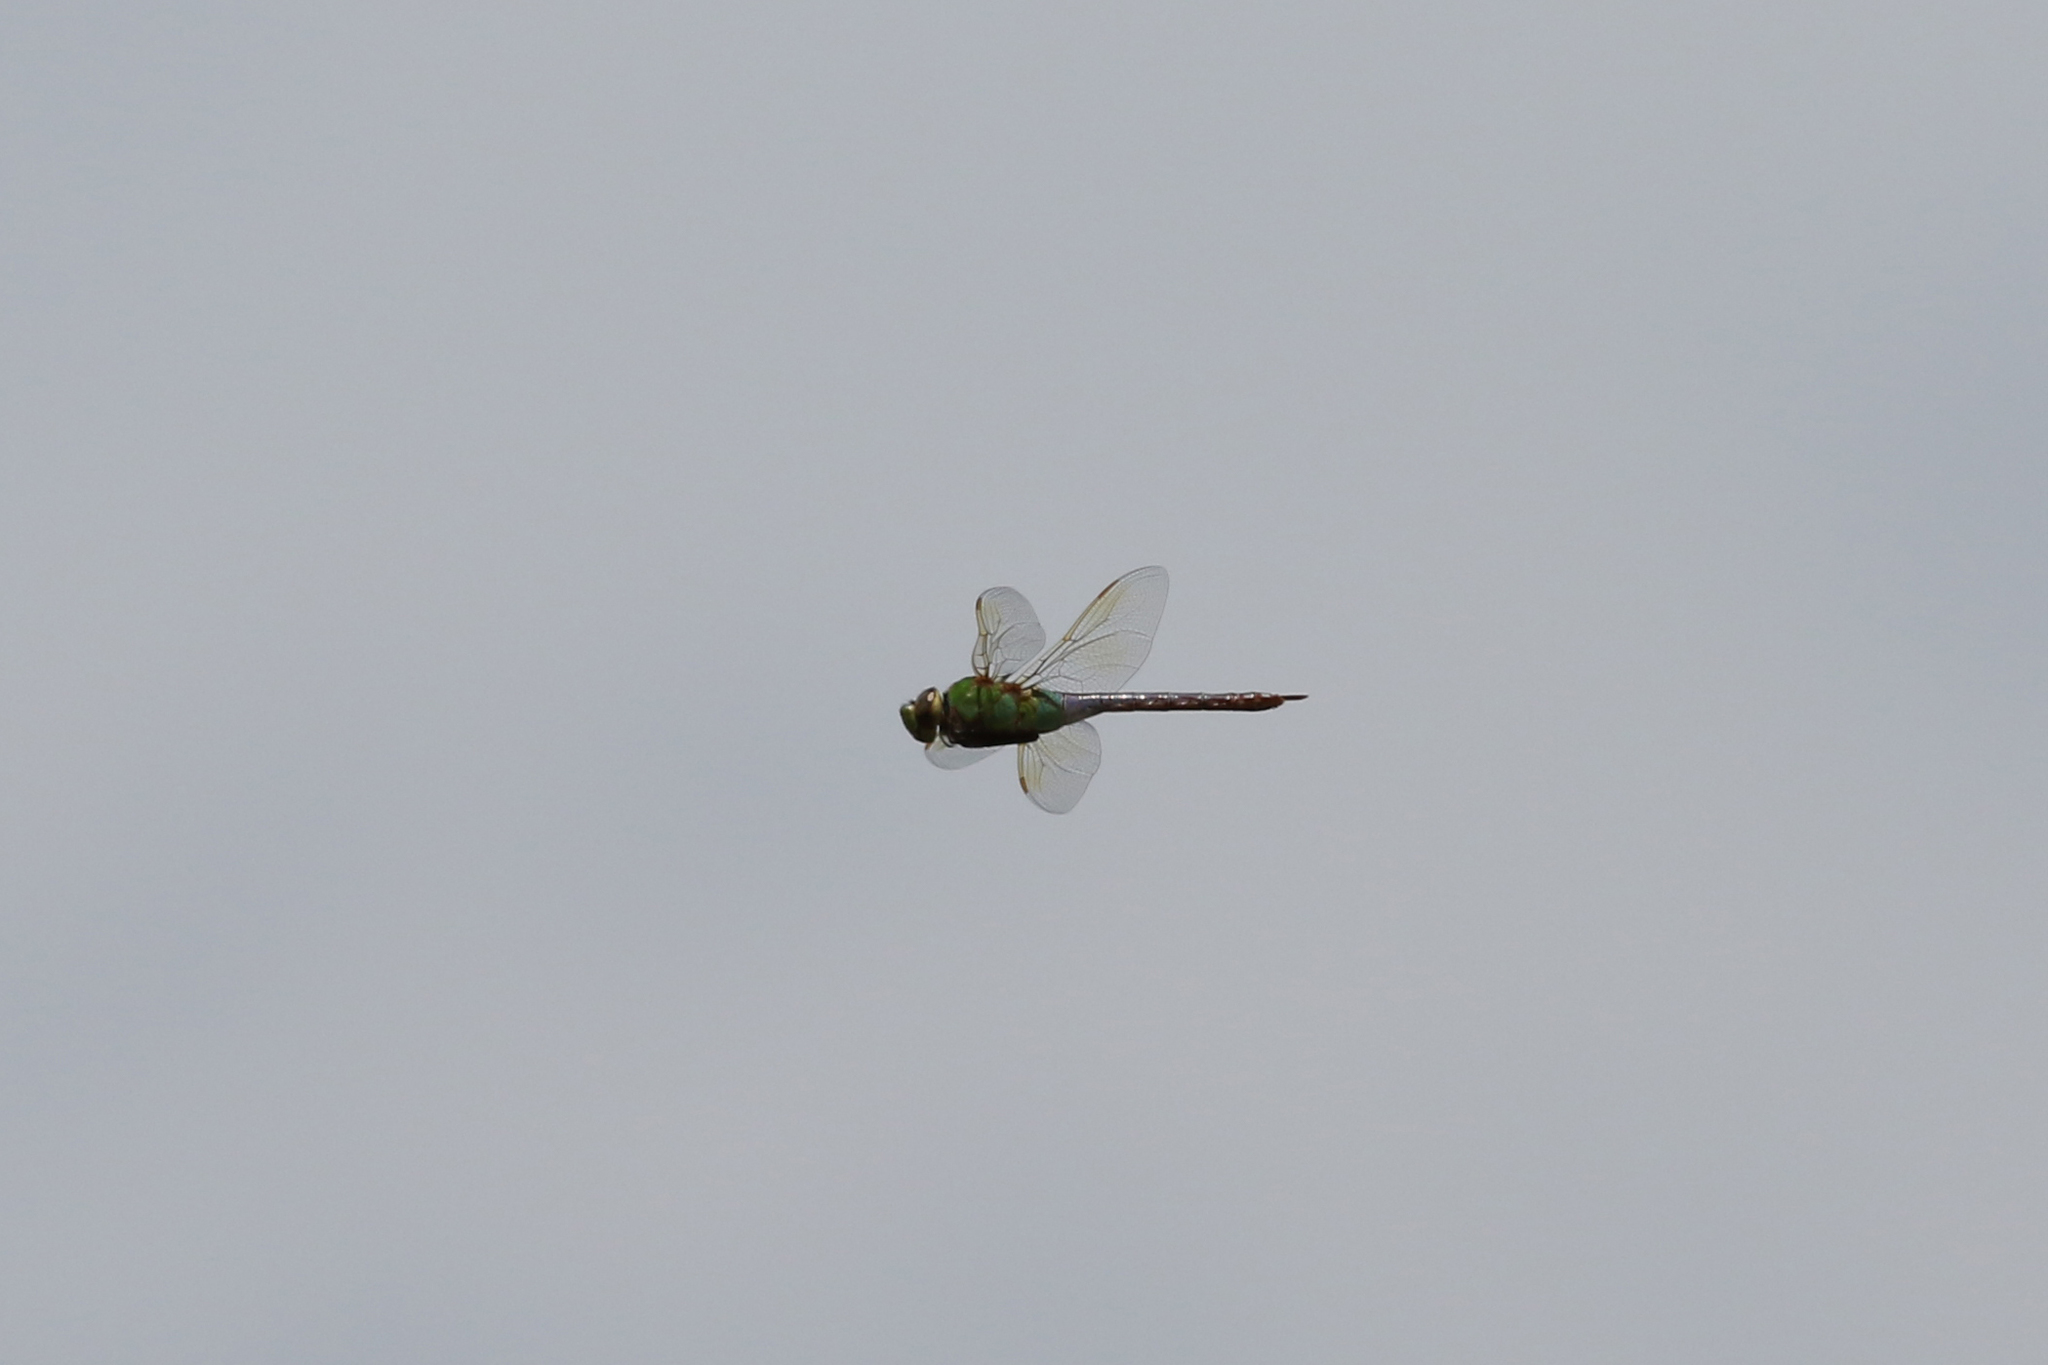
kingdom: Animalia
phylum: Arthropoda
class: Insecta
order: Odonata
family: Aeshnidae
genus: Anax
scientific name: Anax junius
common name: Common green darner
